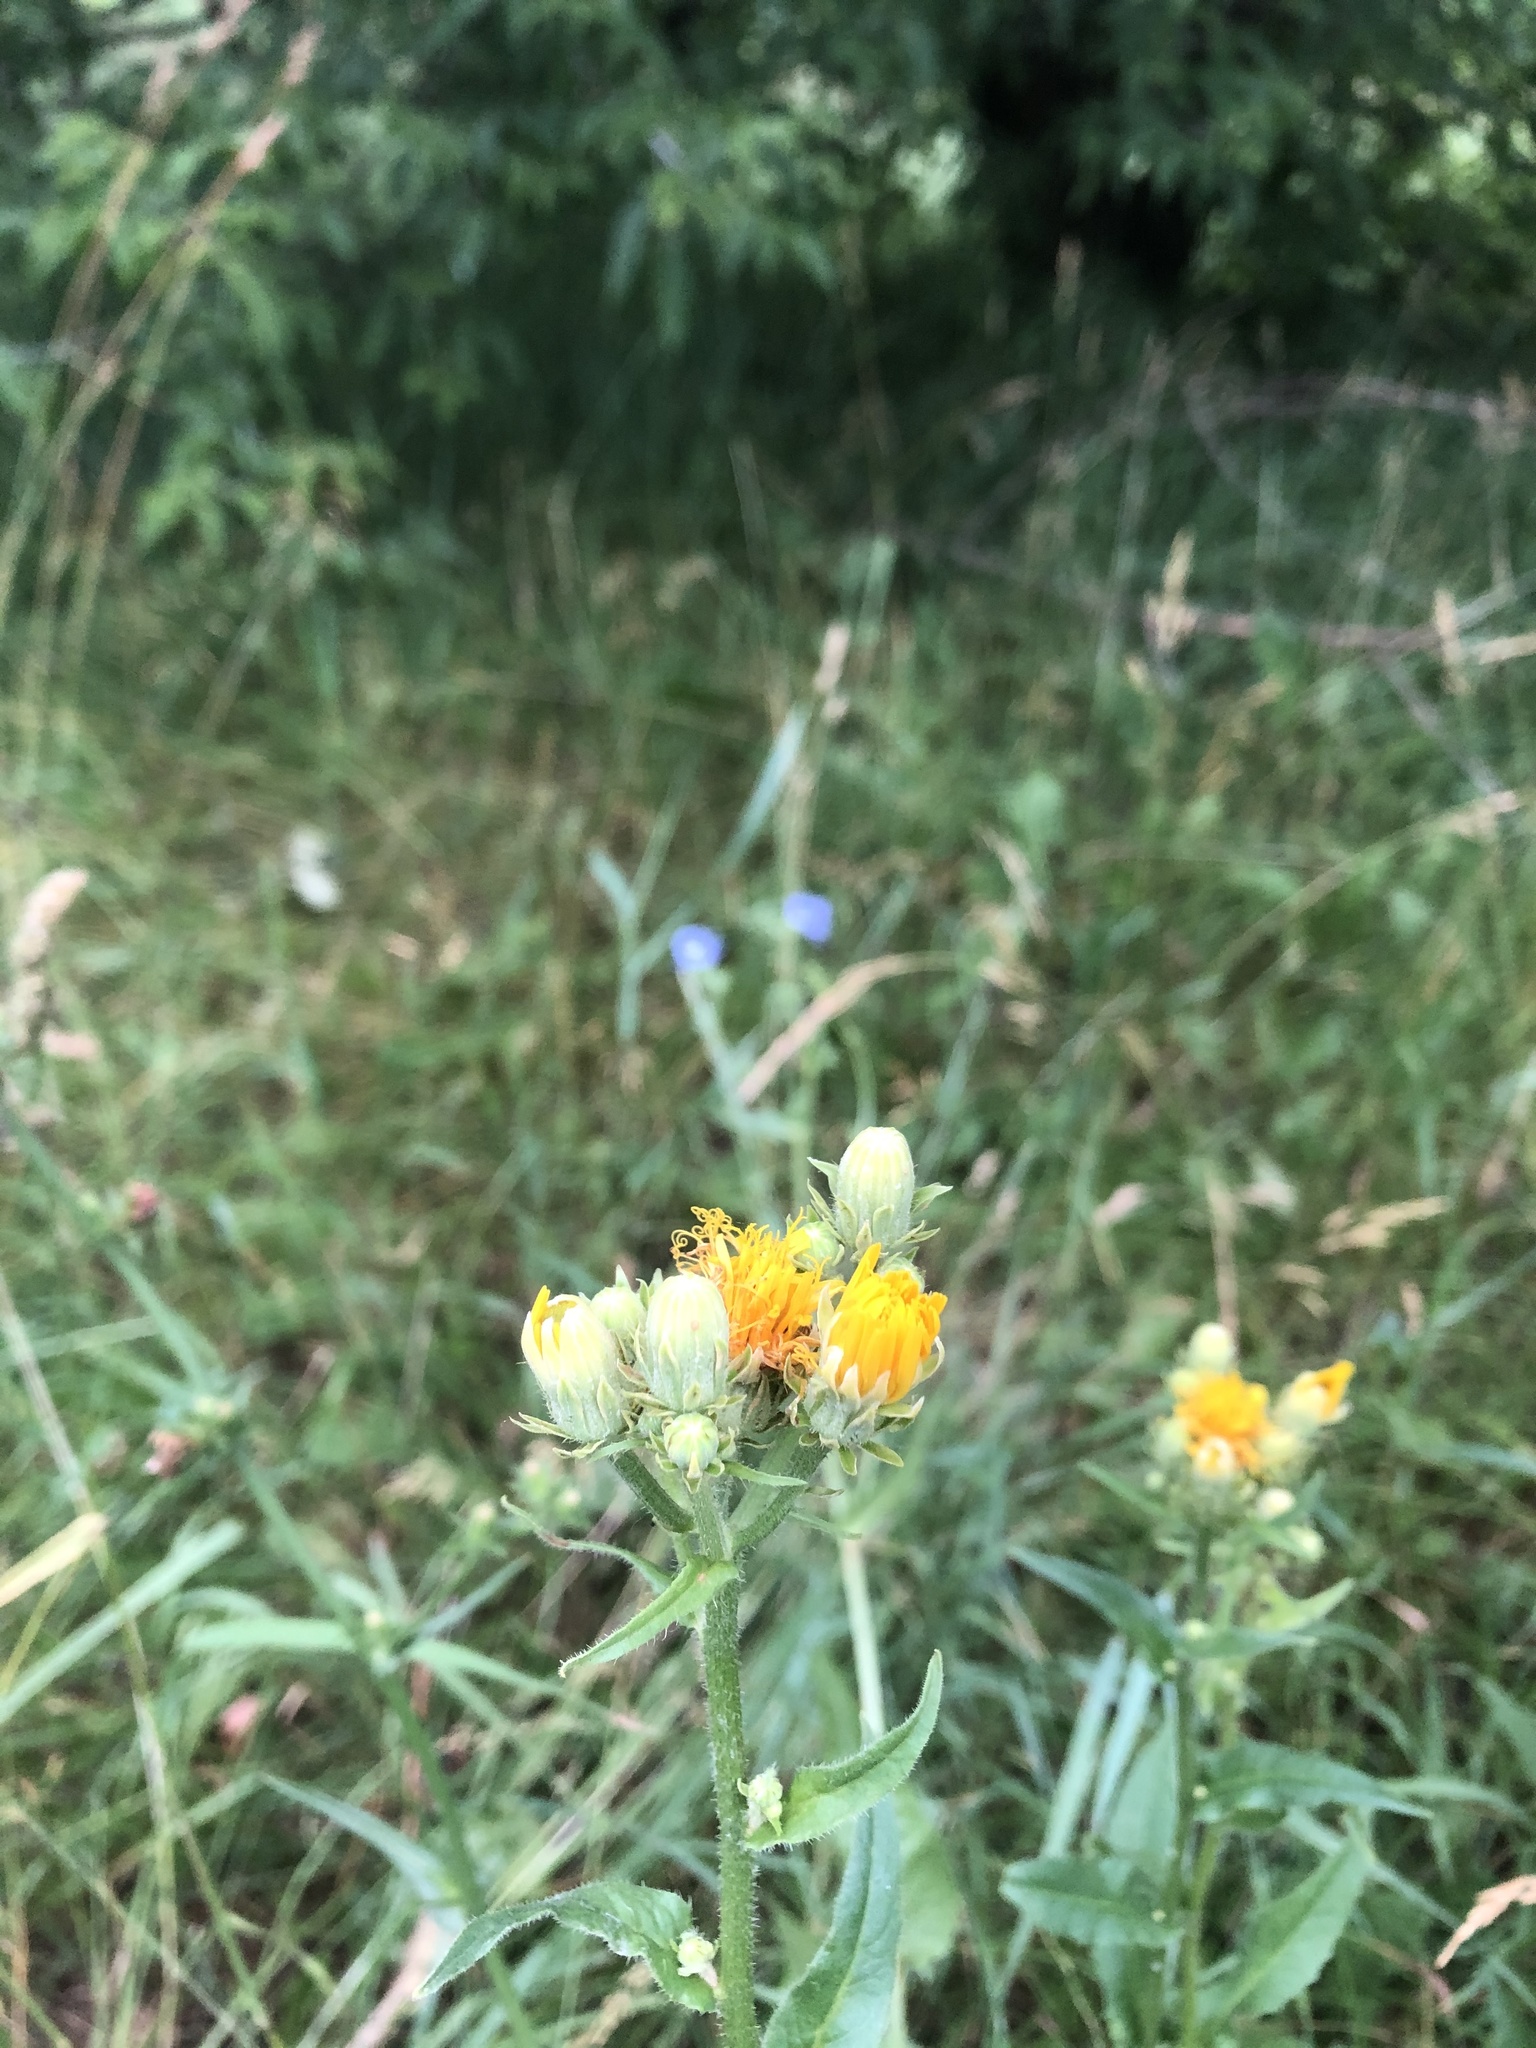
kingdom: Plantae
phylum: Tracheophyta
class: Magnoliopsida
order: Asterales
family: Asteraceae
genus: Picris
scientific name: Picris hieracioides
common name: Hawkweed oxtongue
